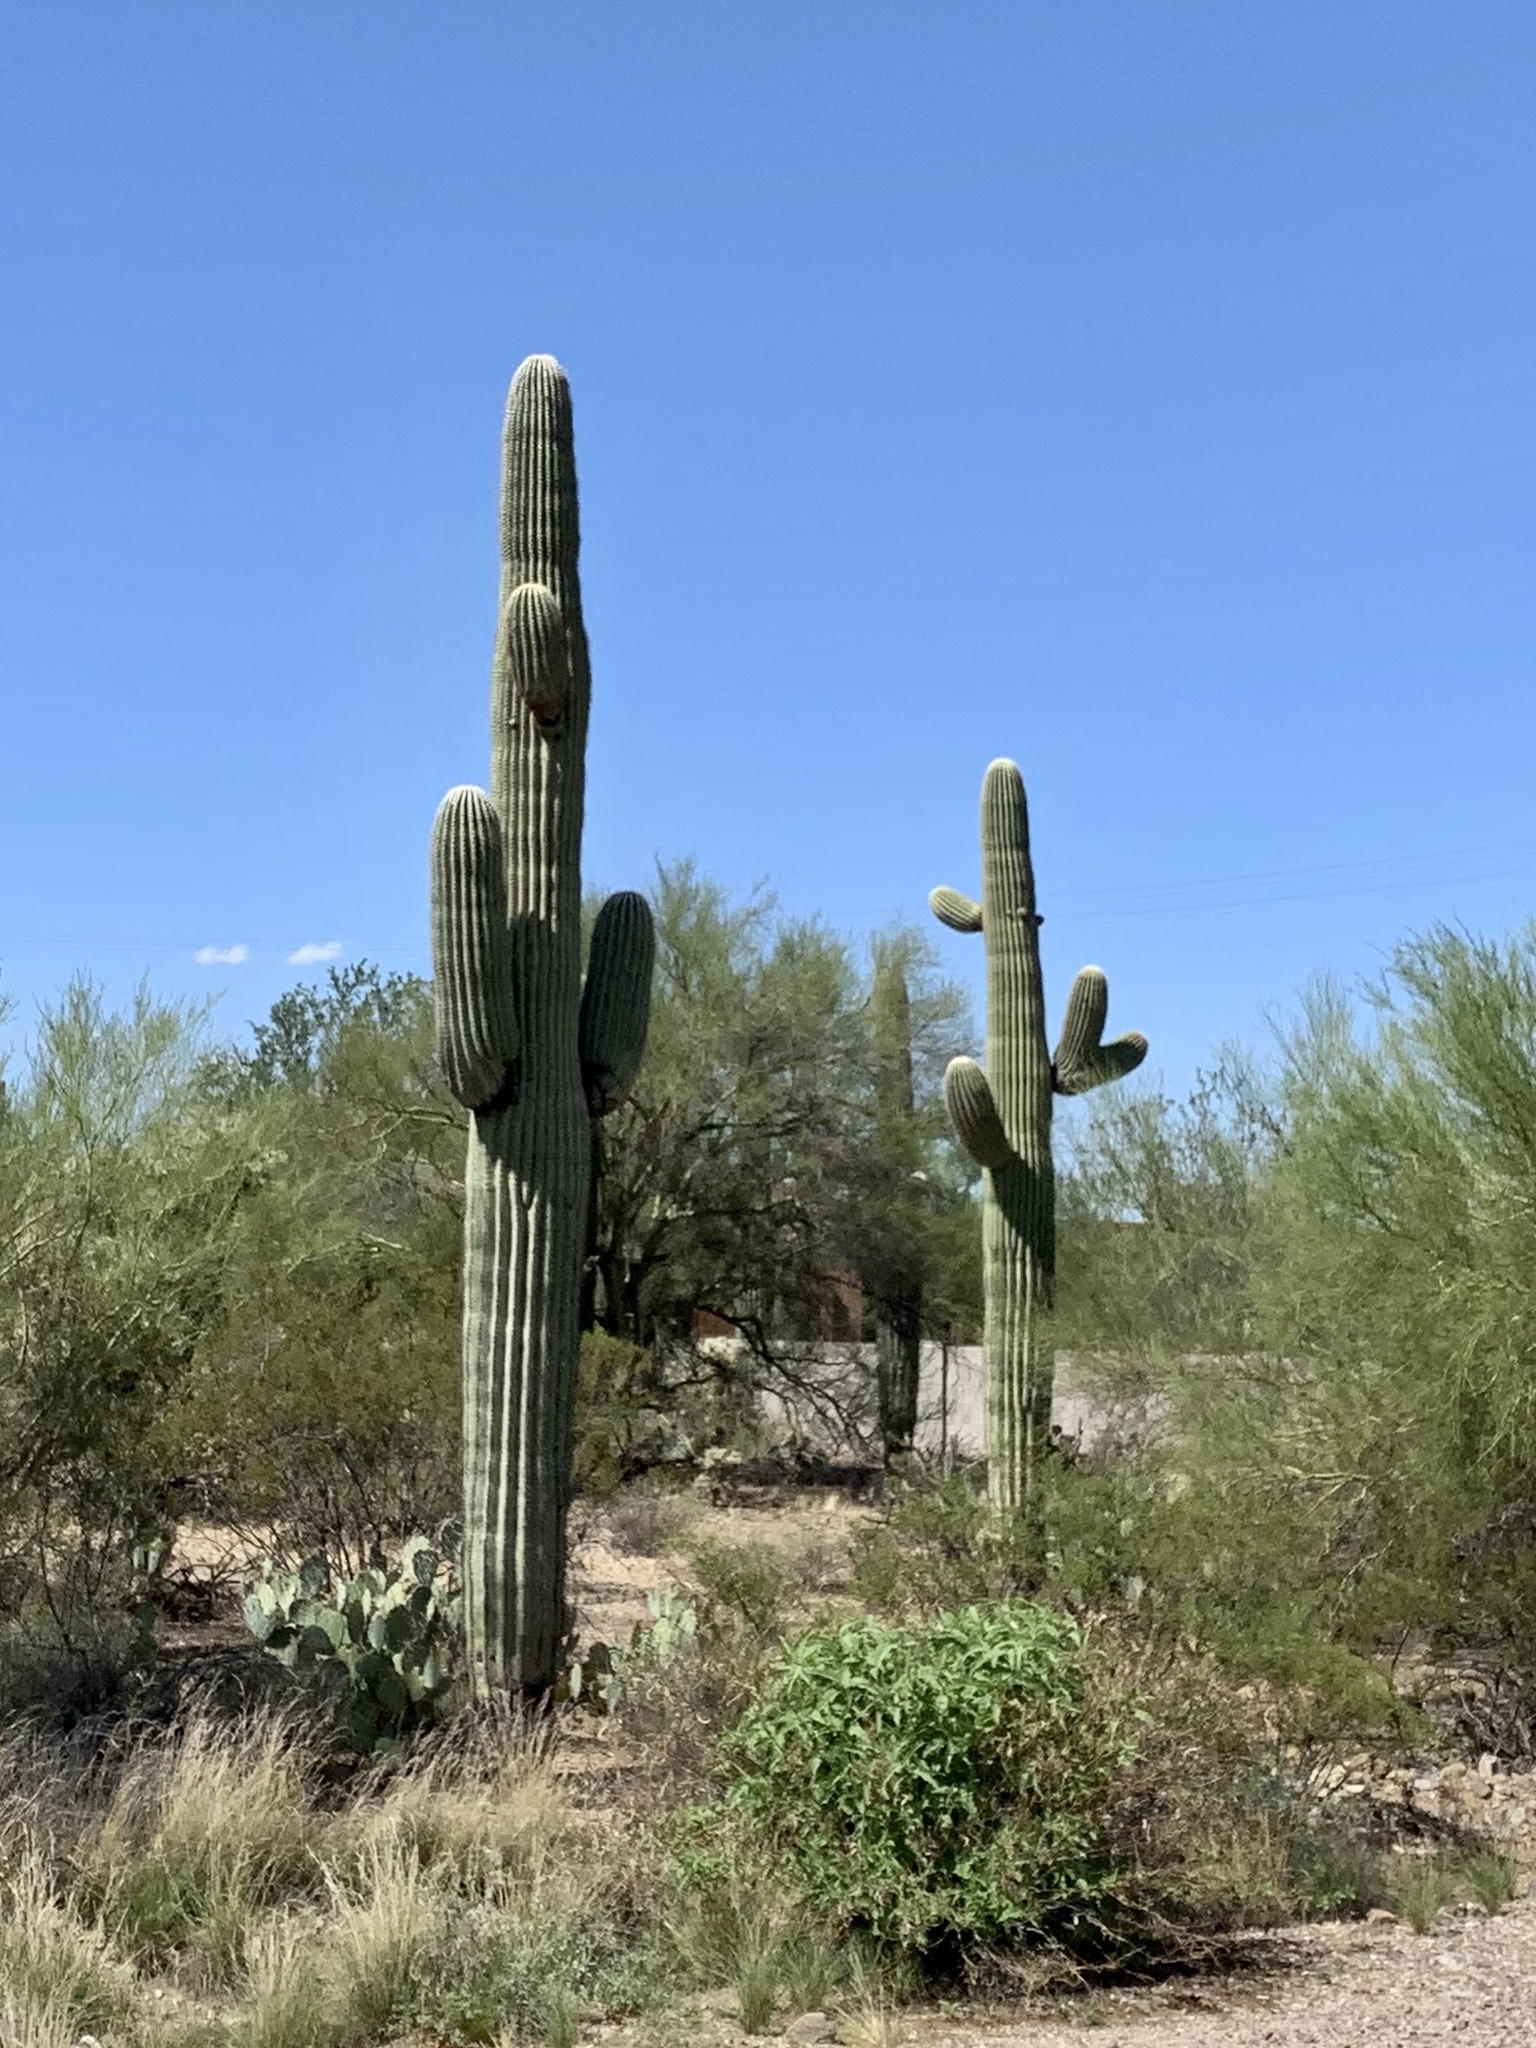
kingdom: Plantae
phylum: Tracheophyta
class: Magnoliopsida
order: Caryophyllales
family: Cactaceae
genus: Carnegiea
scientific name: Carnegiea gigantea
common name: Saguaro
